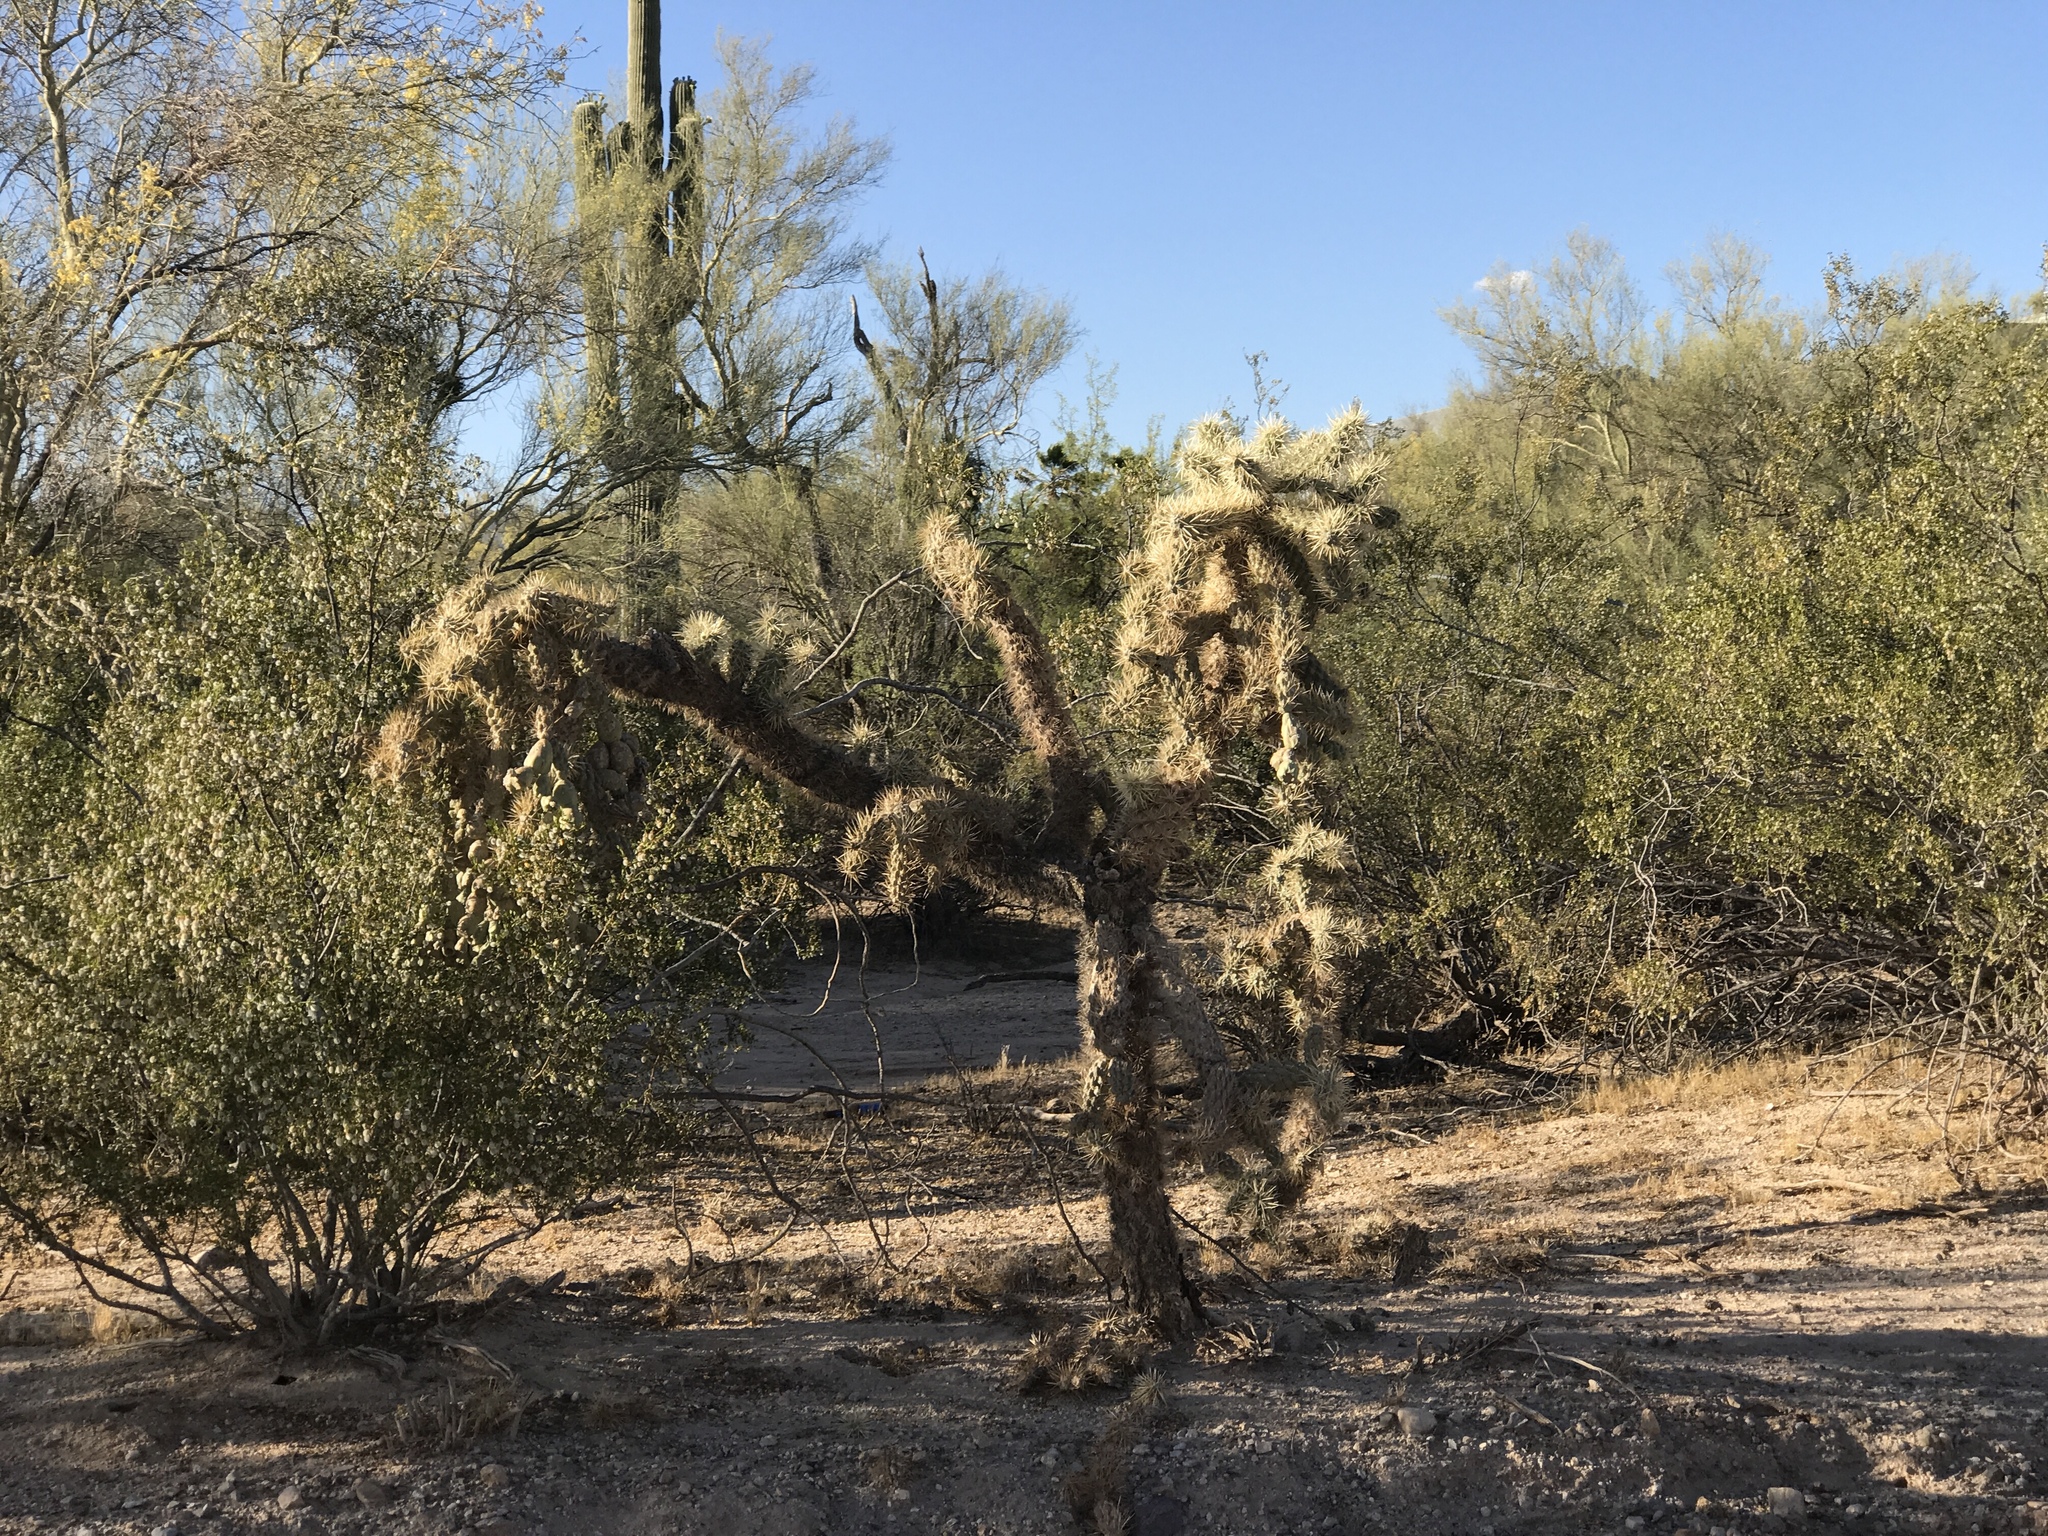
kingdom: Plantae
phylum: Tracheophyta
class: Magnoliopsida
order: Caryophyllales
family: Cactaceae
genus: Cylindropuntia
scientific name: Cylindropuntia fulgida
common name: Jumping cholla
